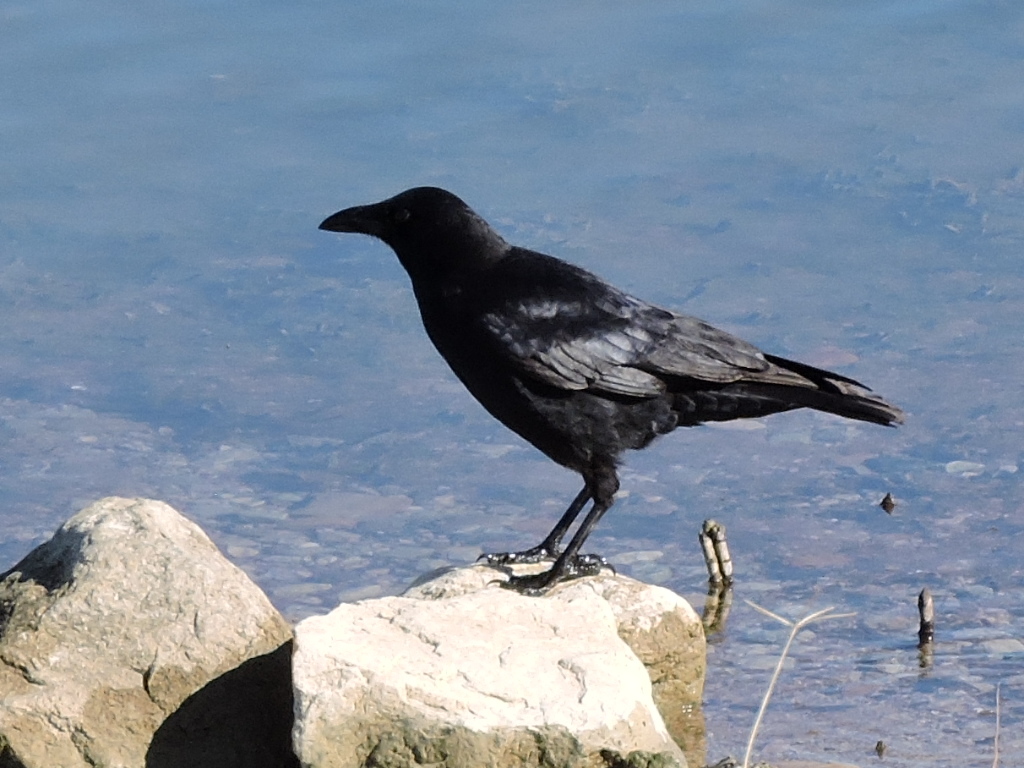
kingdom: Animalia
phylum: Chordata
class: Aves
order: Passeriformes
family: Corvidae
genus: Corvus
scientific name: Corvus brachyrhynchos
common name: American crow
